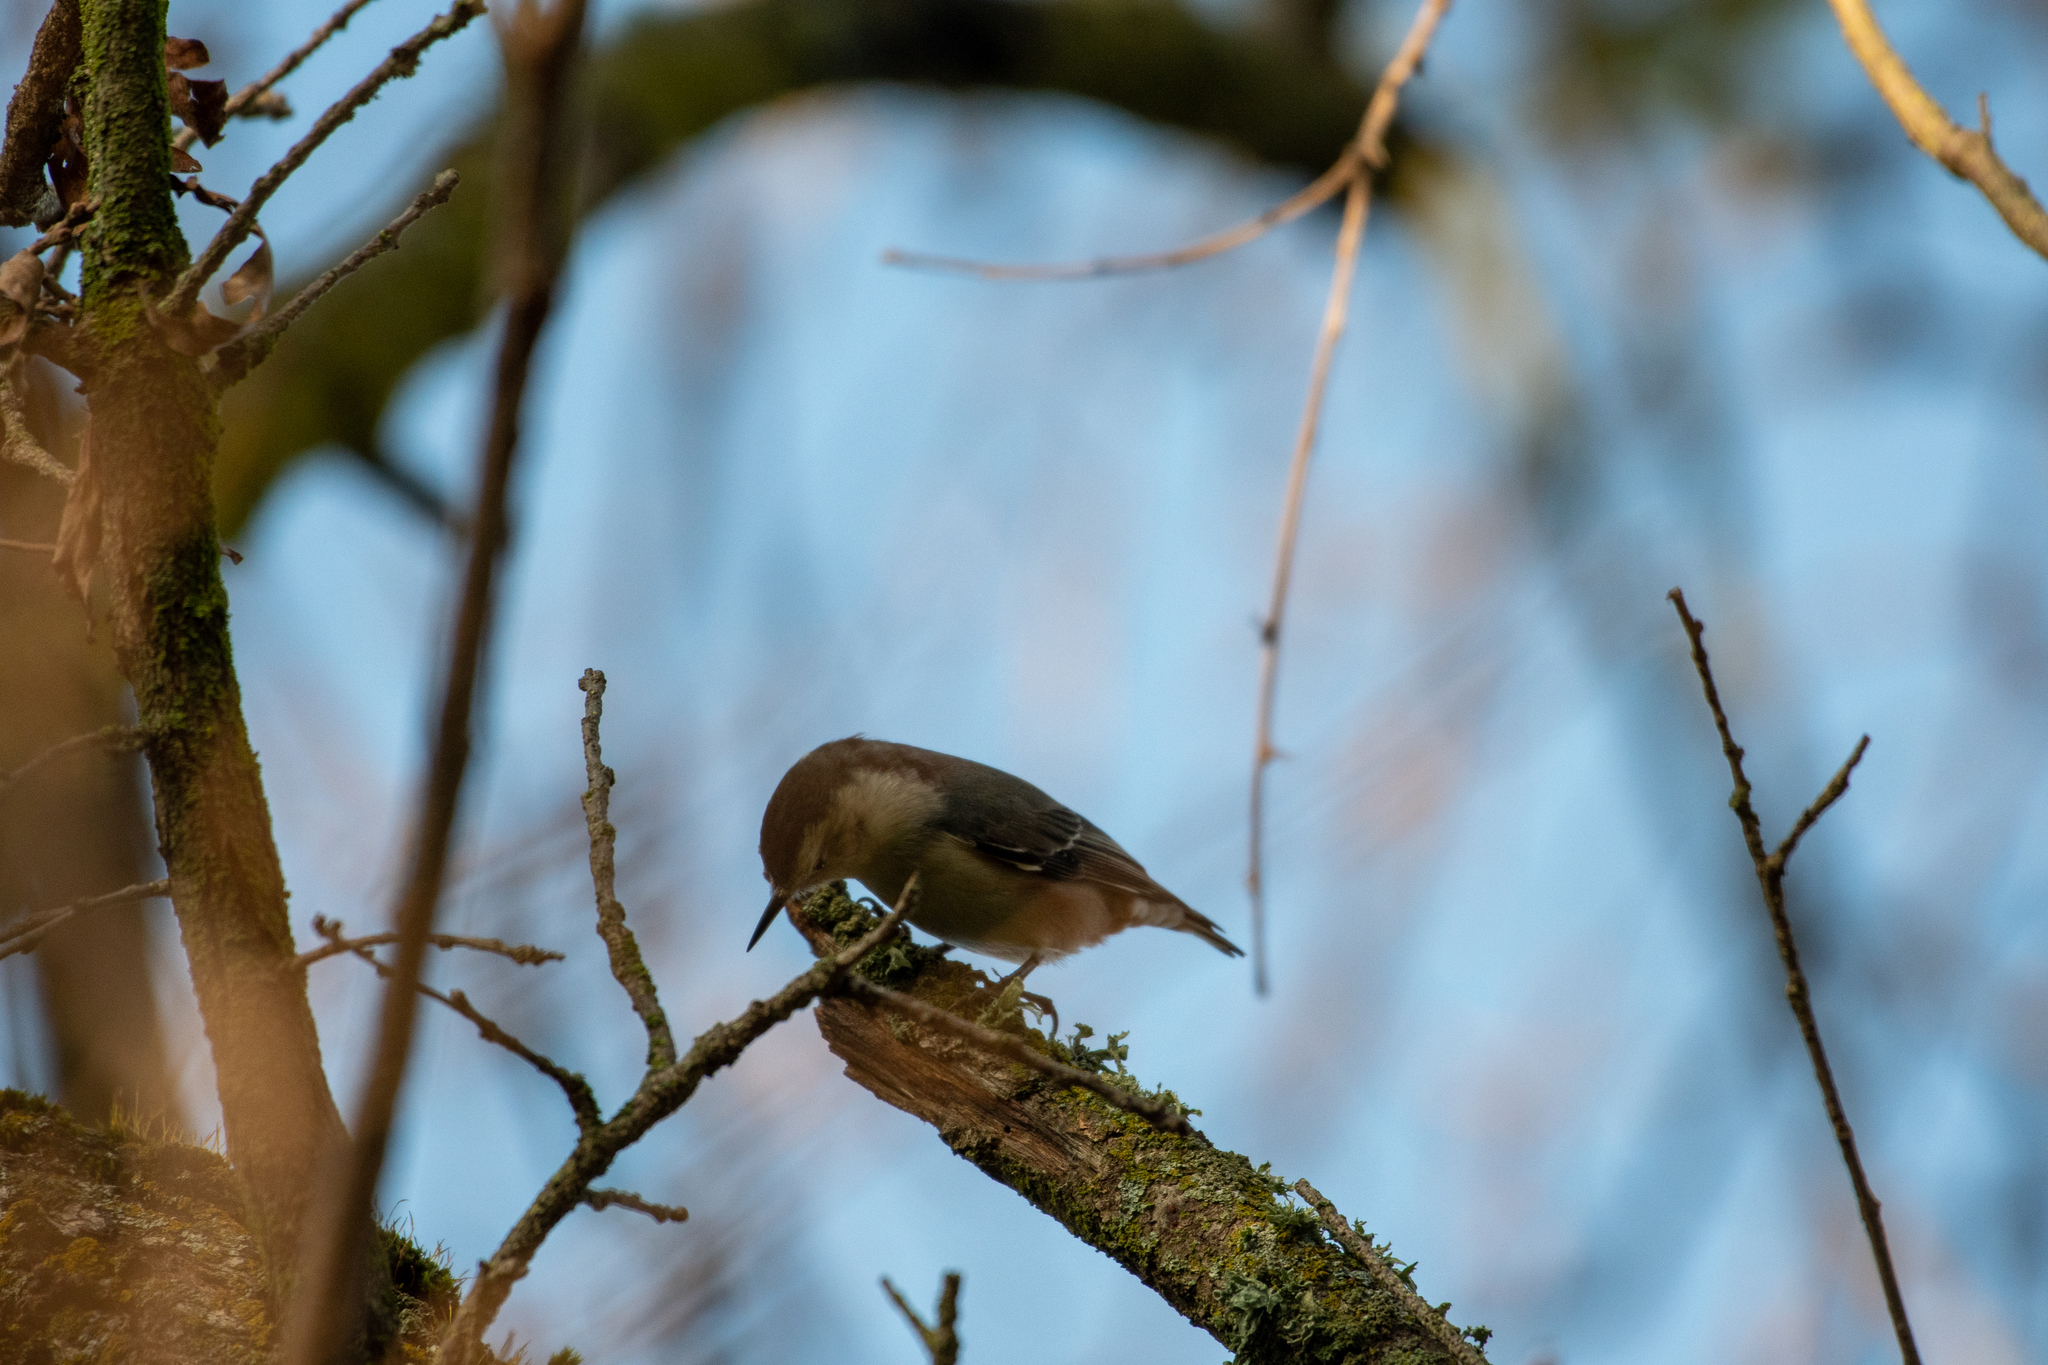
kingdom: Animalia
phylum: Chordata
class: Aves
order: Passeriformes
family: Sittidae
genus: Sitta
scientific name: Sitta carolinensis
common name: White-breasted nuthatch
